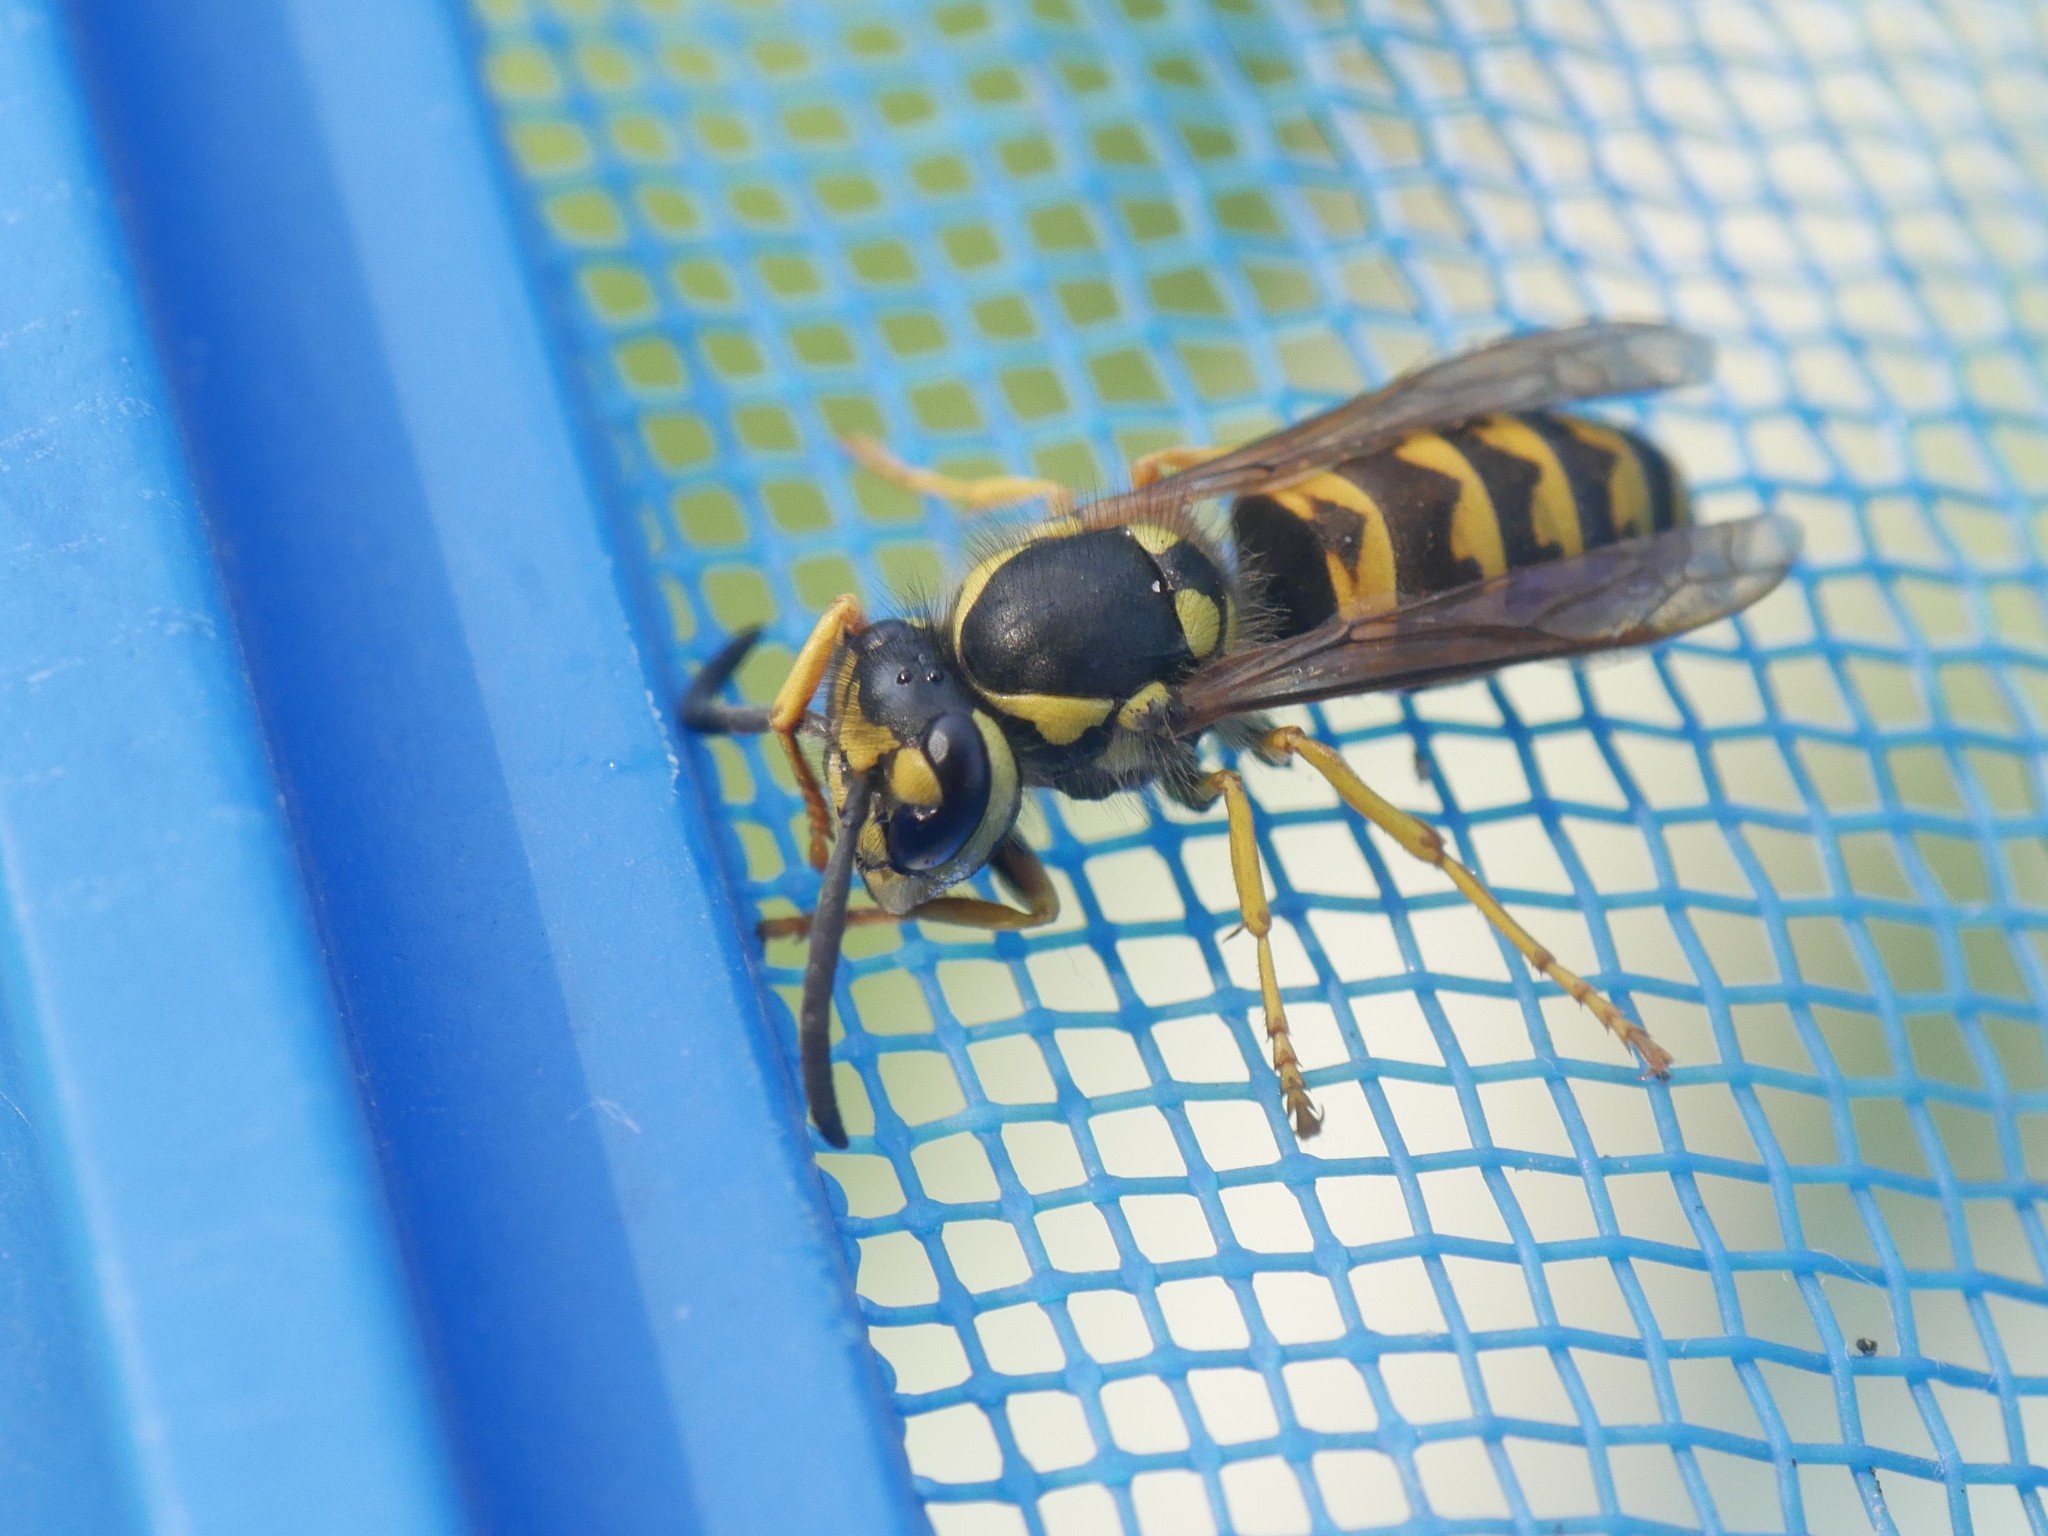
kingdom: Animalia
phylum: Arthropoda
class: Insecta
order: Hymenoptera
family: Vespidae
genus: Vespula
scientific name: Vespula germanica
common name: German wasp
